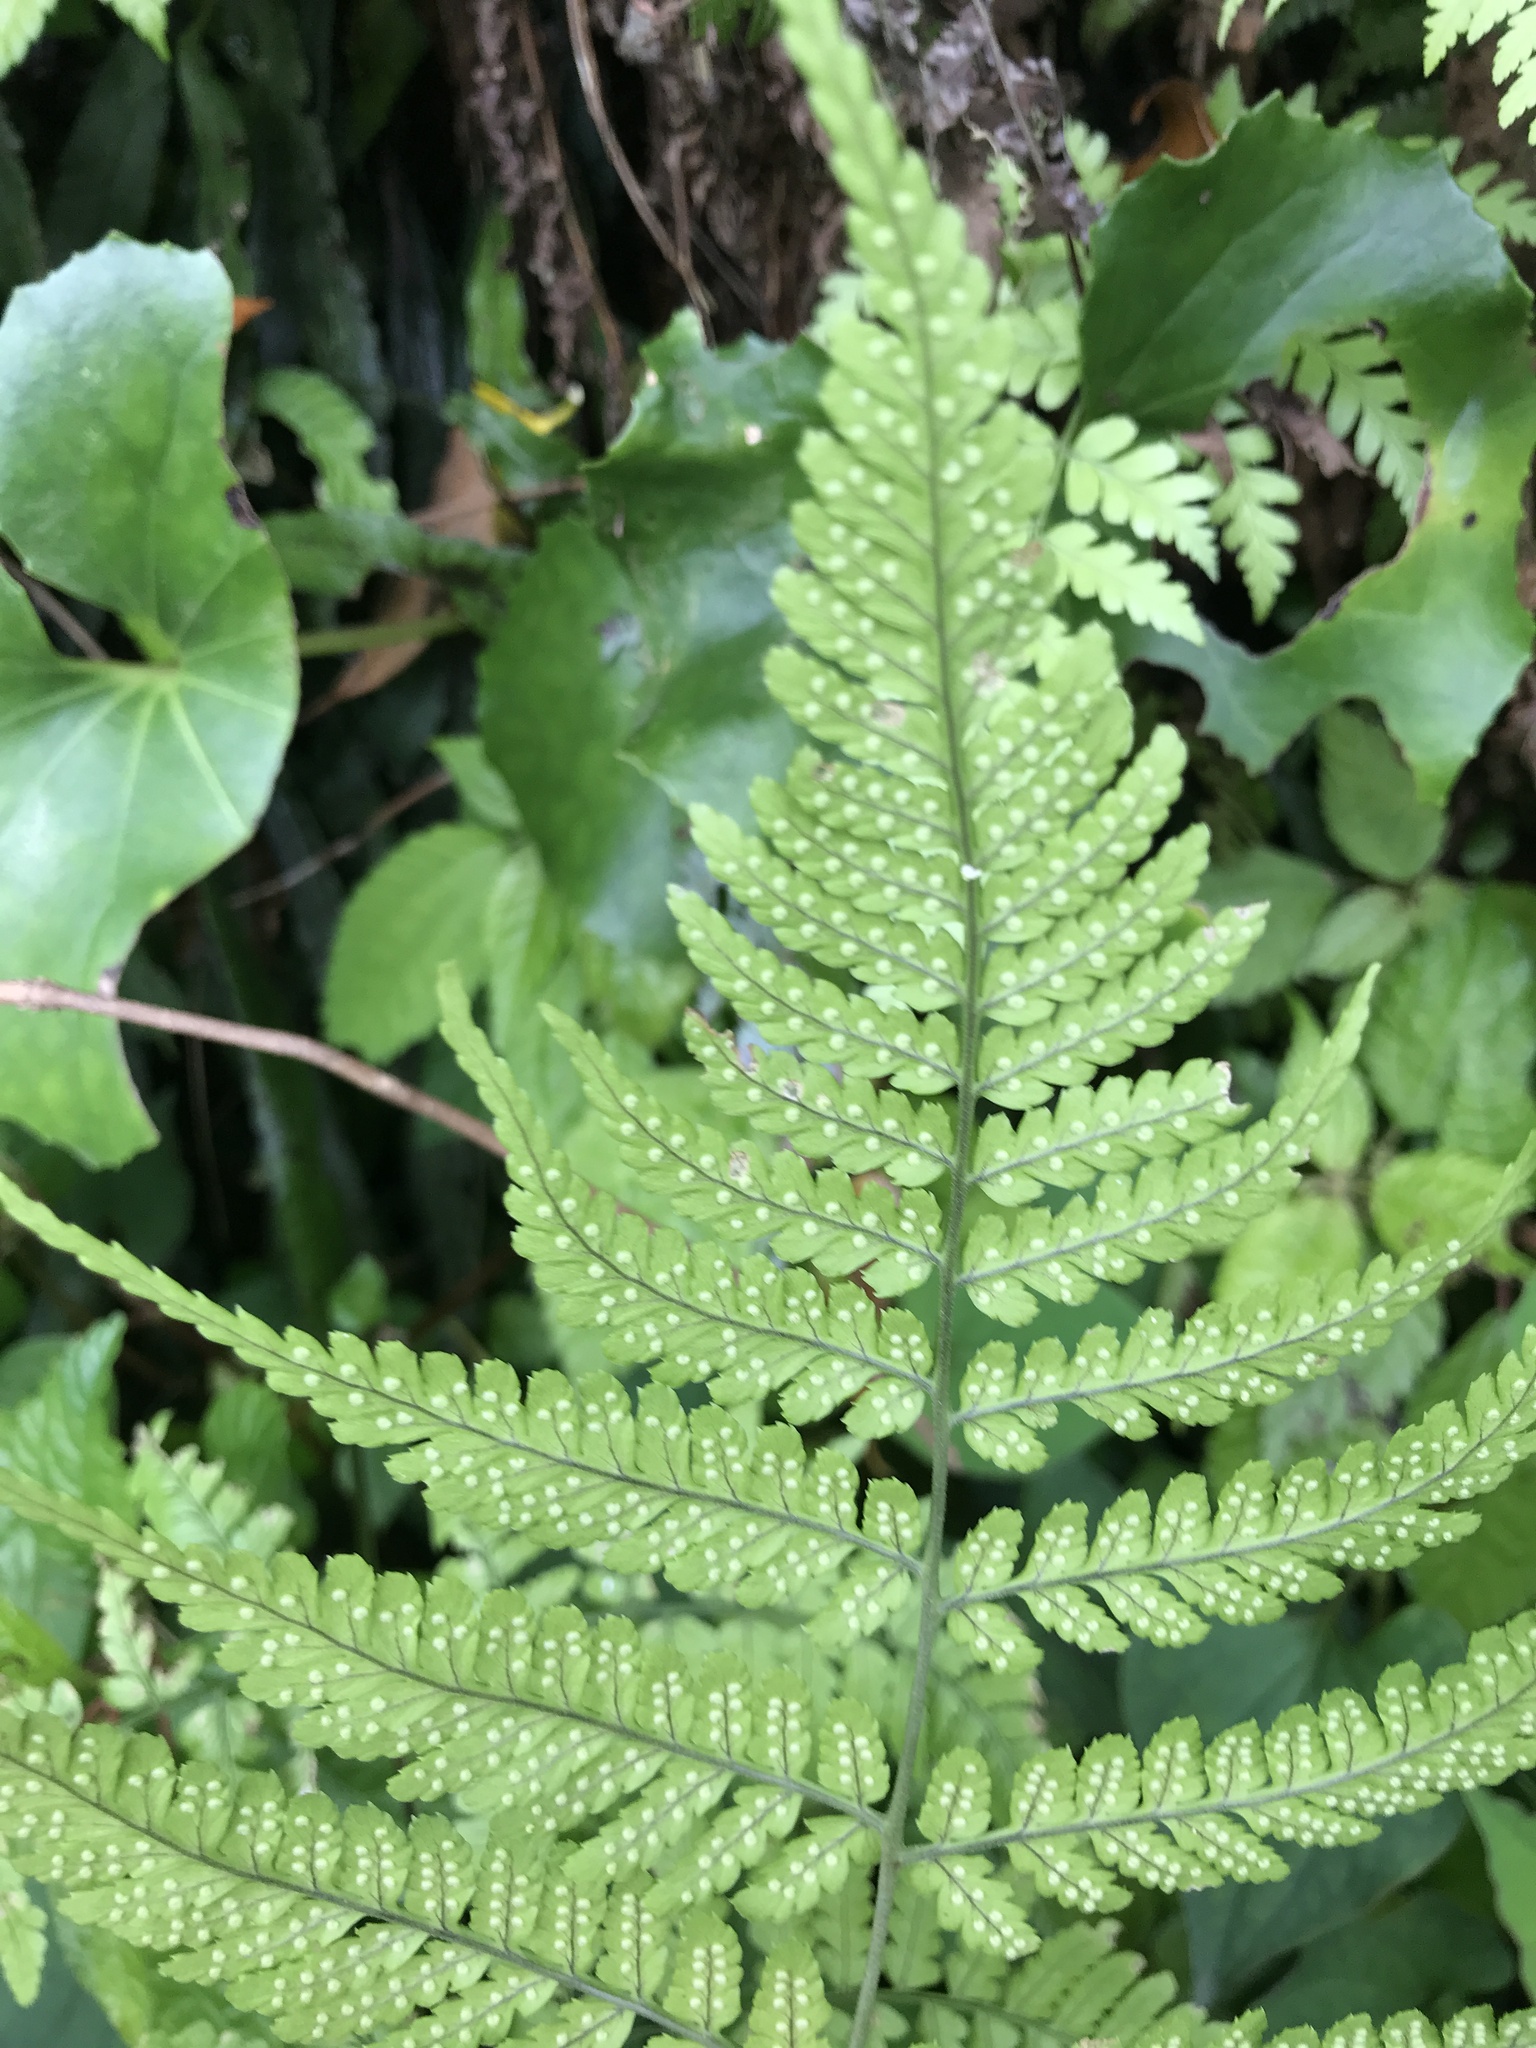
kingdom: Plantae
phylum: Tracheophyta
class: Polypodiopsida
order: Polypodiales
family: Dryopteridaceae
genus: Dryopteris
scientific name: Dryopteris sparsa
